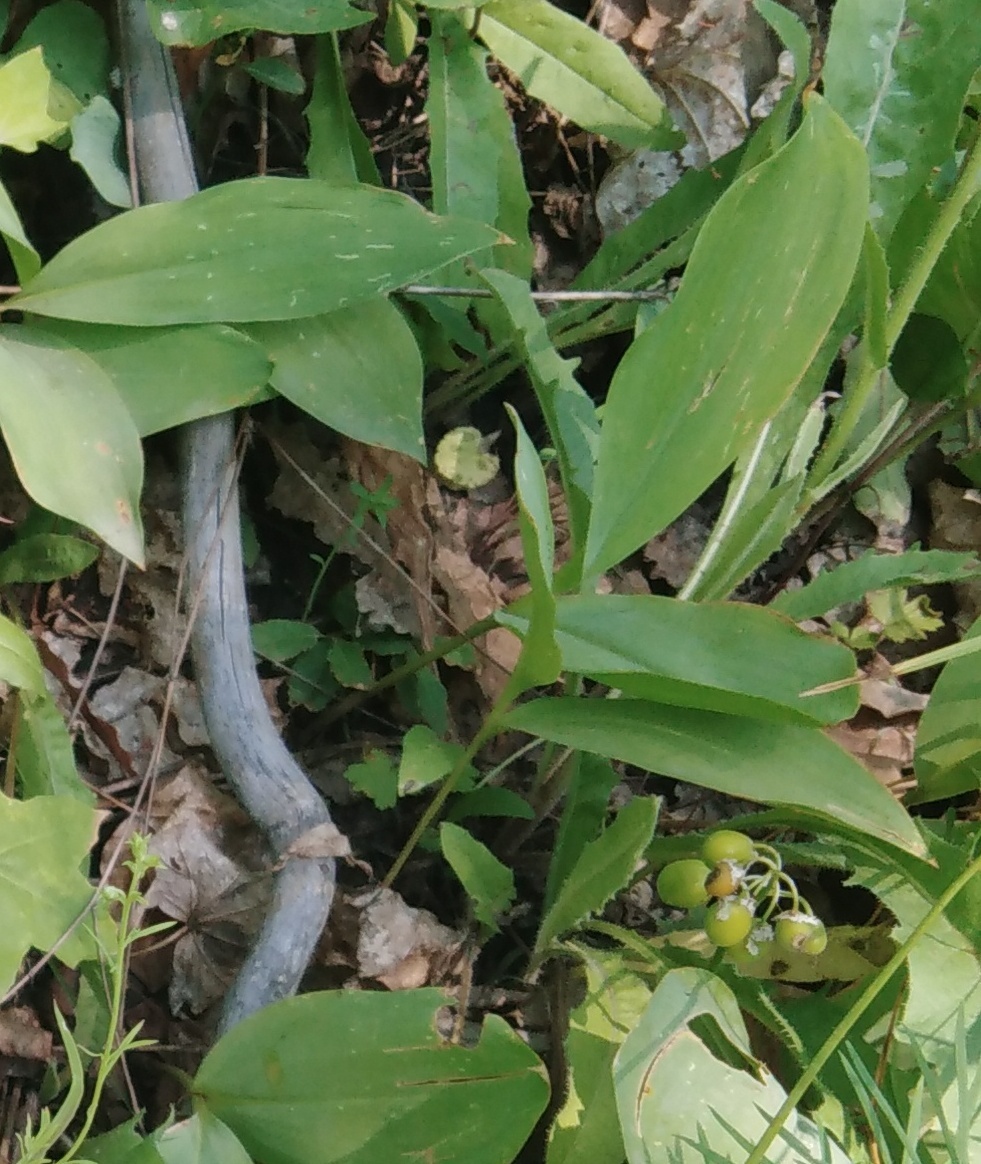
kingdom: Plantae
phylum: Tracheophyta
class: Liliopsida
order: Asparagales
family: Asparagaceae
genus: Convallaria
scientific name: Convallaria majalis
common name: Lily-of-the-valley
